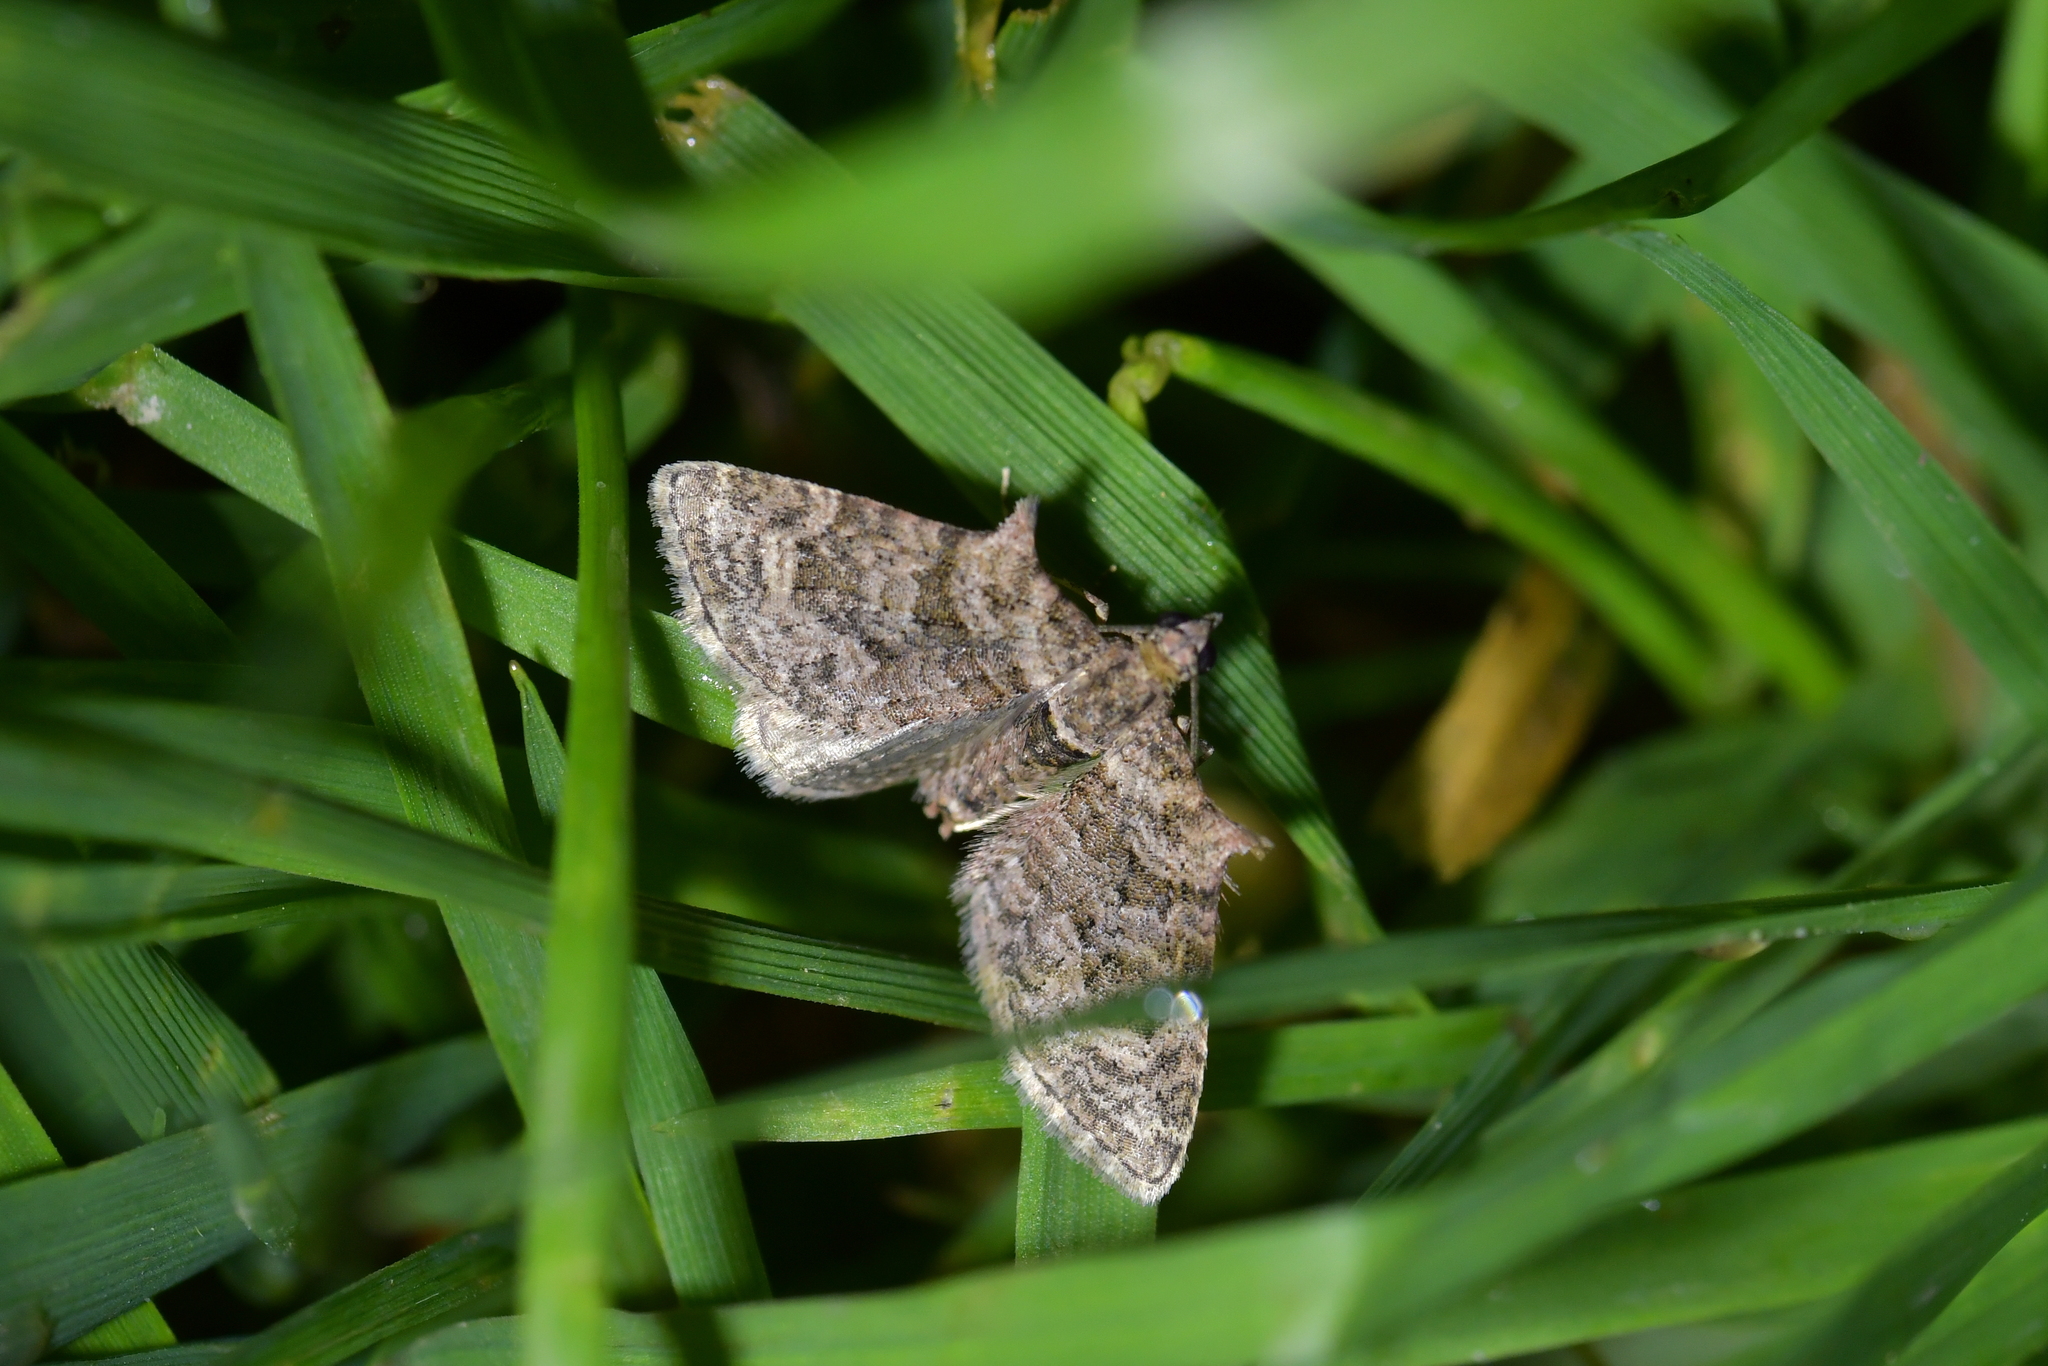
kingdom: Animalia
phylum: Arthropoda
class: Insecta
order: Lepidoptera
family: Geometridae
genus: Phrissogonus
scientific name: Phrissogonus laticostata
